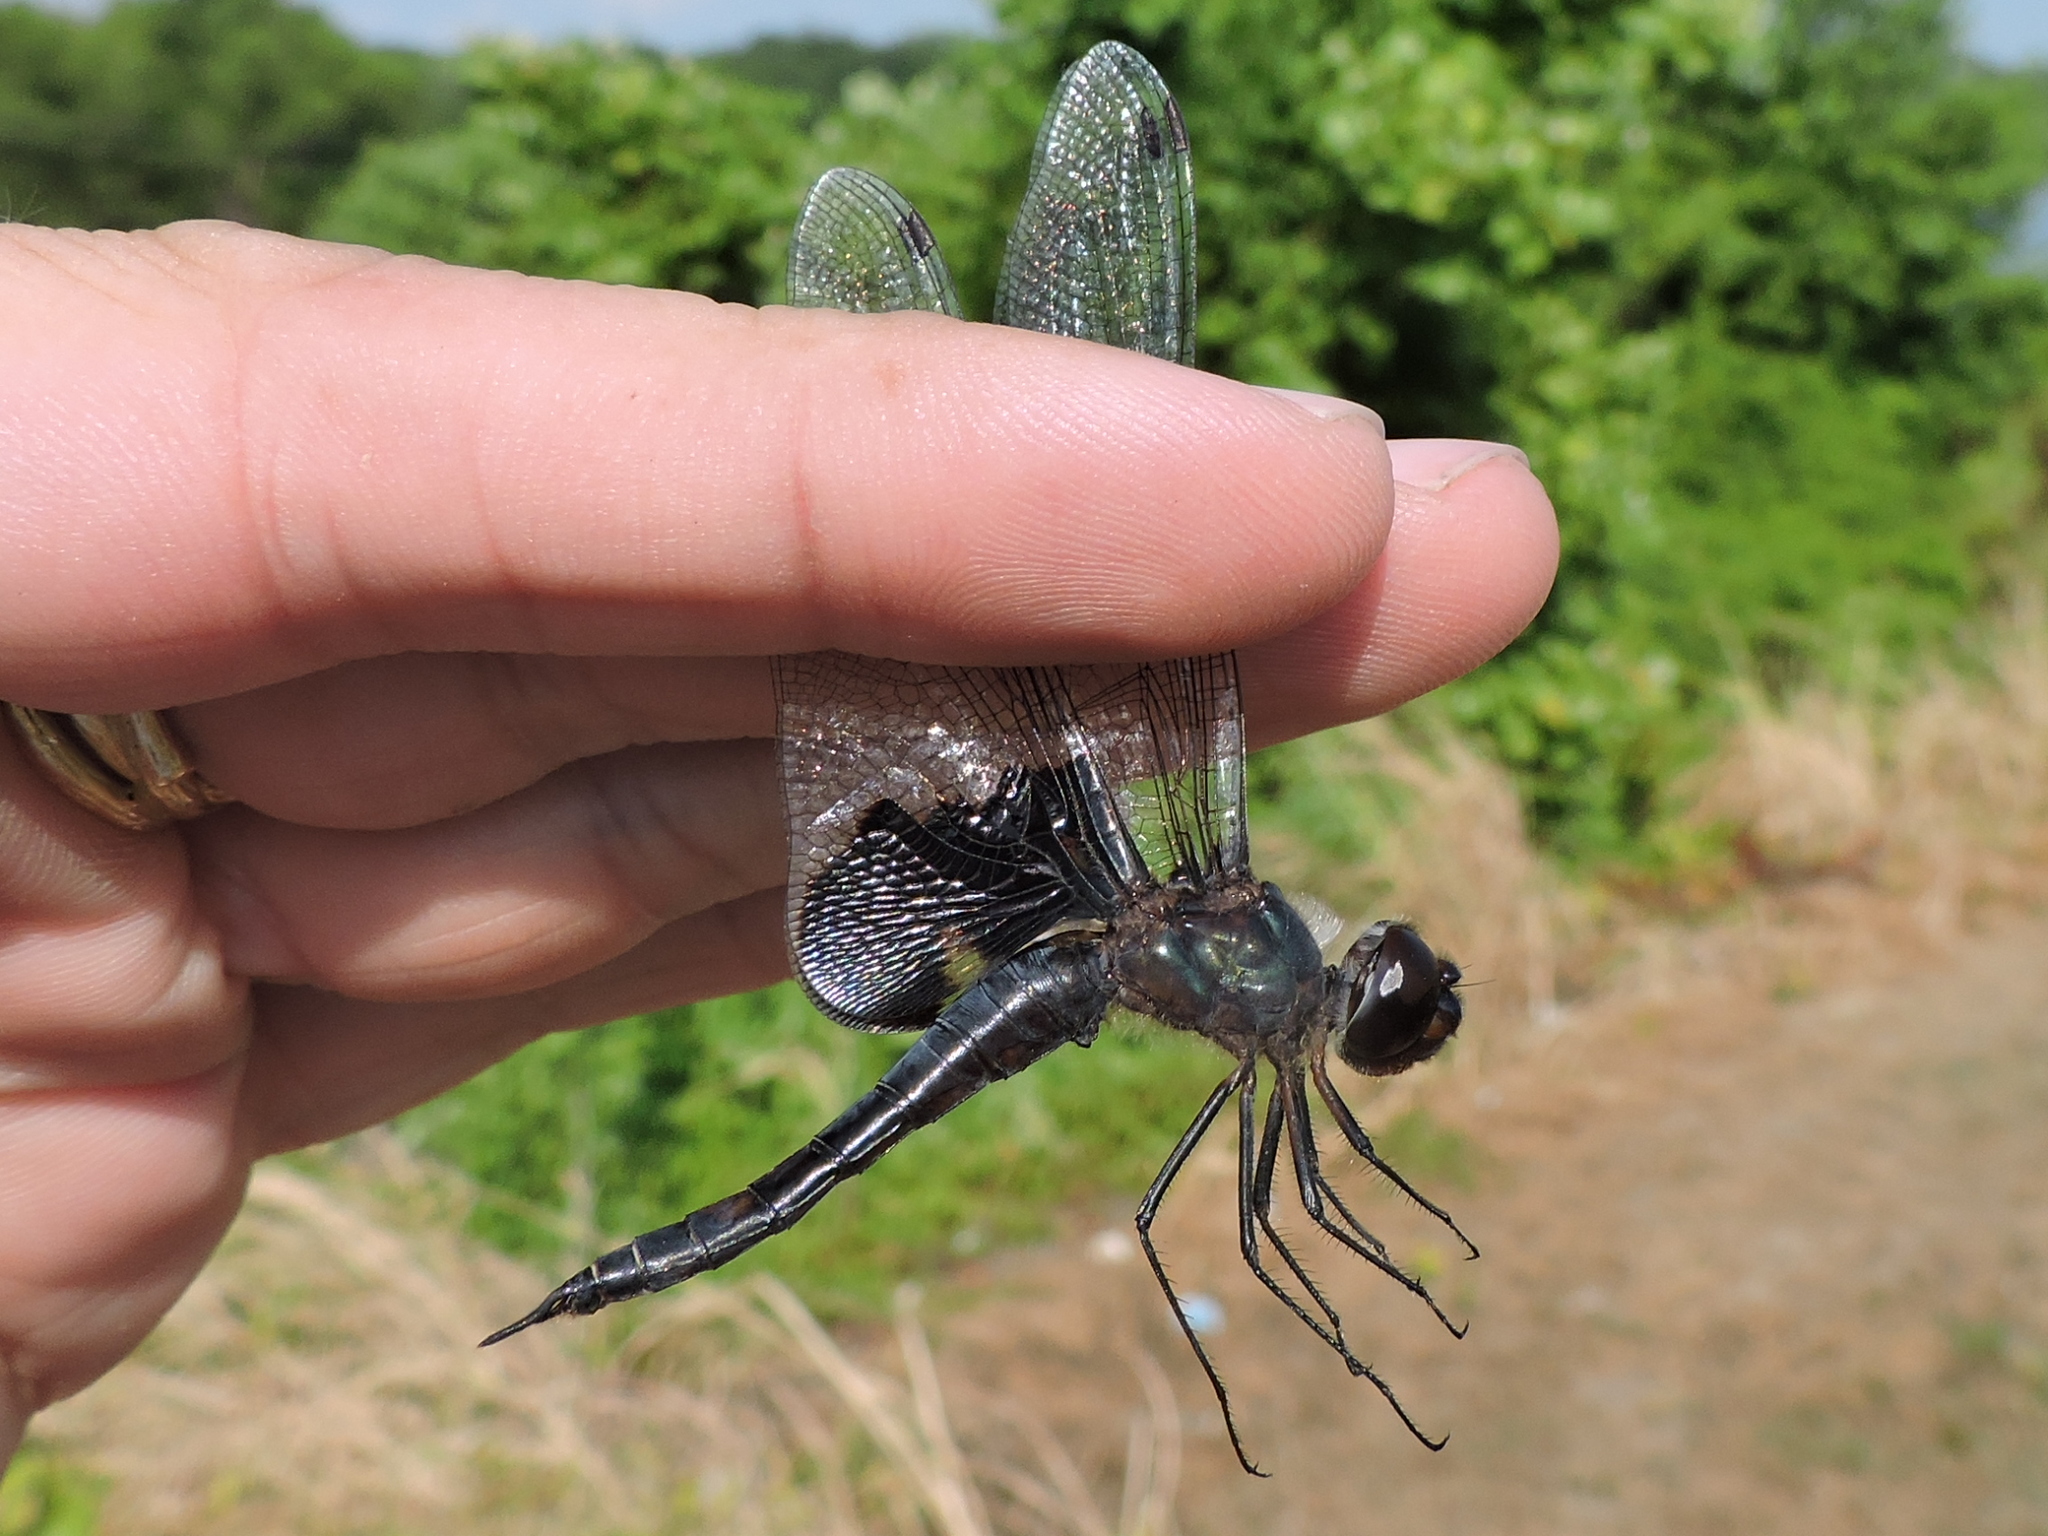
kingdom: Animalia
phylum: Arthropoda
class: Insecta
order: Odonata
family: Libellulidae
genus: Tramea
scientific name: Tramea lacerata
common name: Black saddlebags
